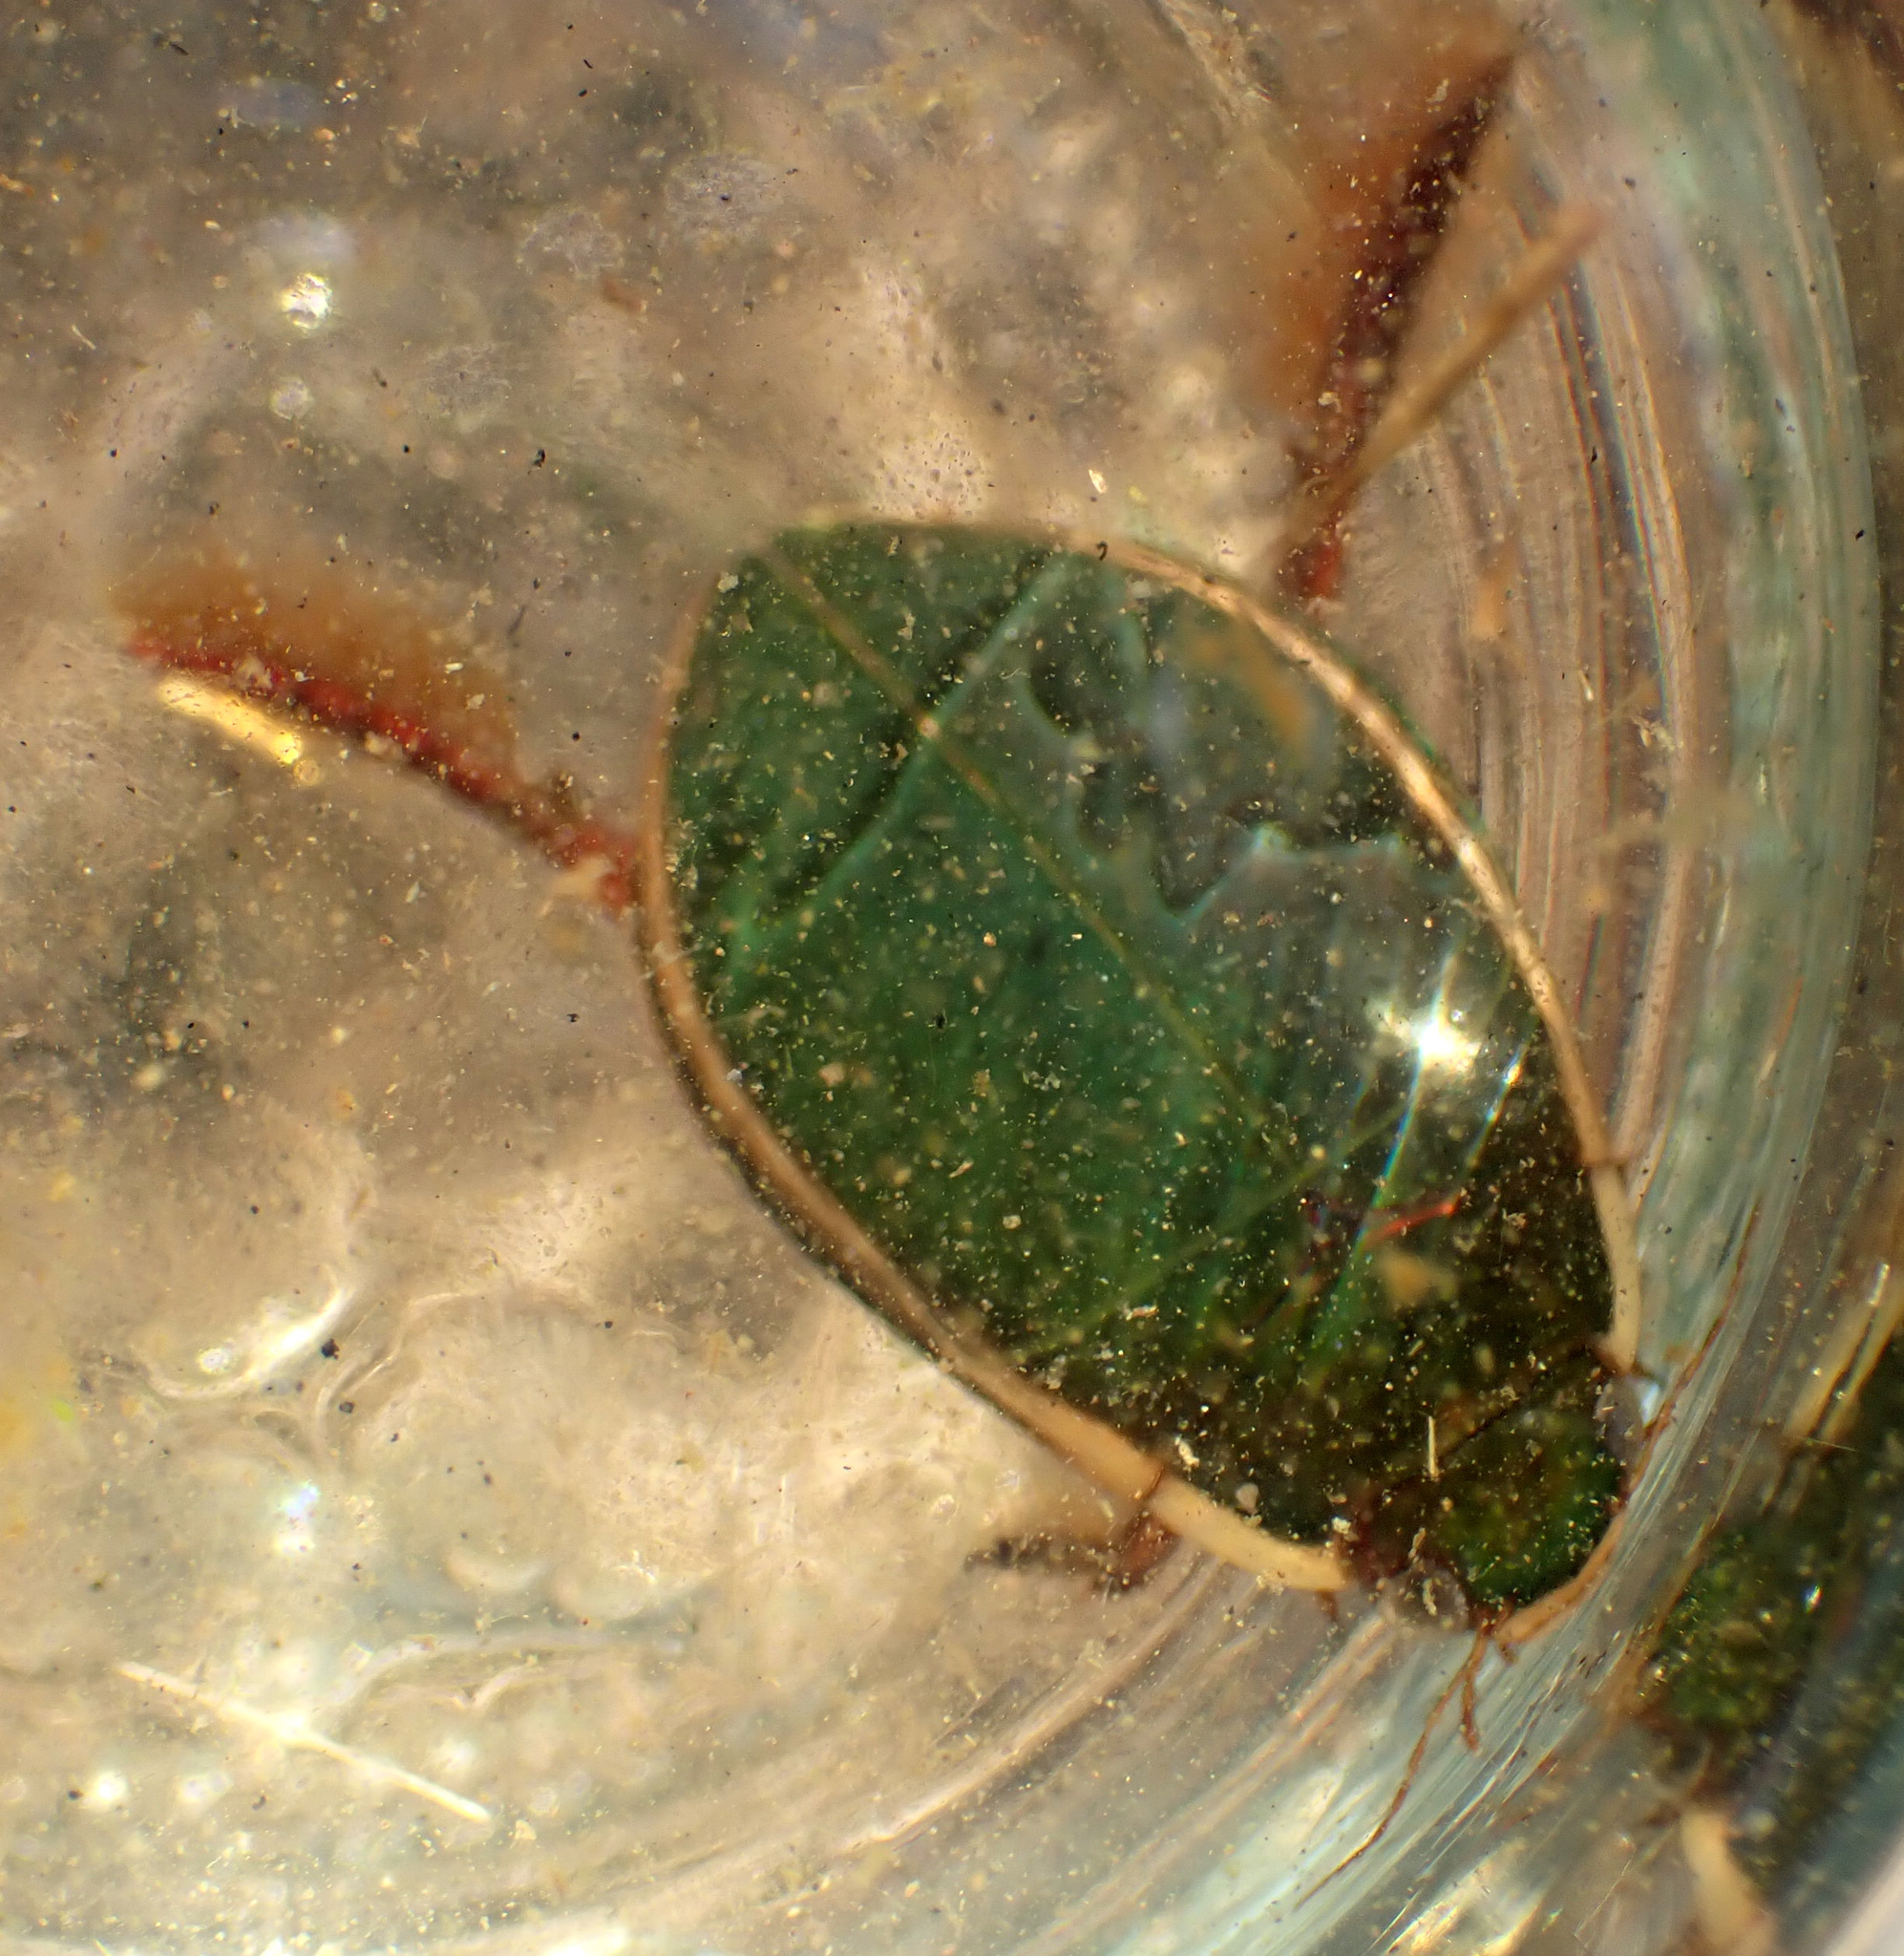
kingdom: Animalia
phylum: Arthropoda
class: Insecta
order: Coleoptera
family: Dytiscidae
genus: Cybister
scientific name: Cybister lateralimarginalis
